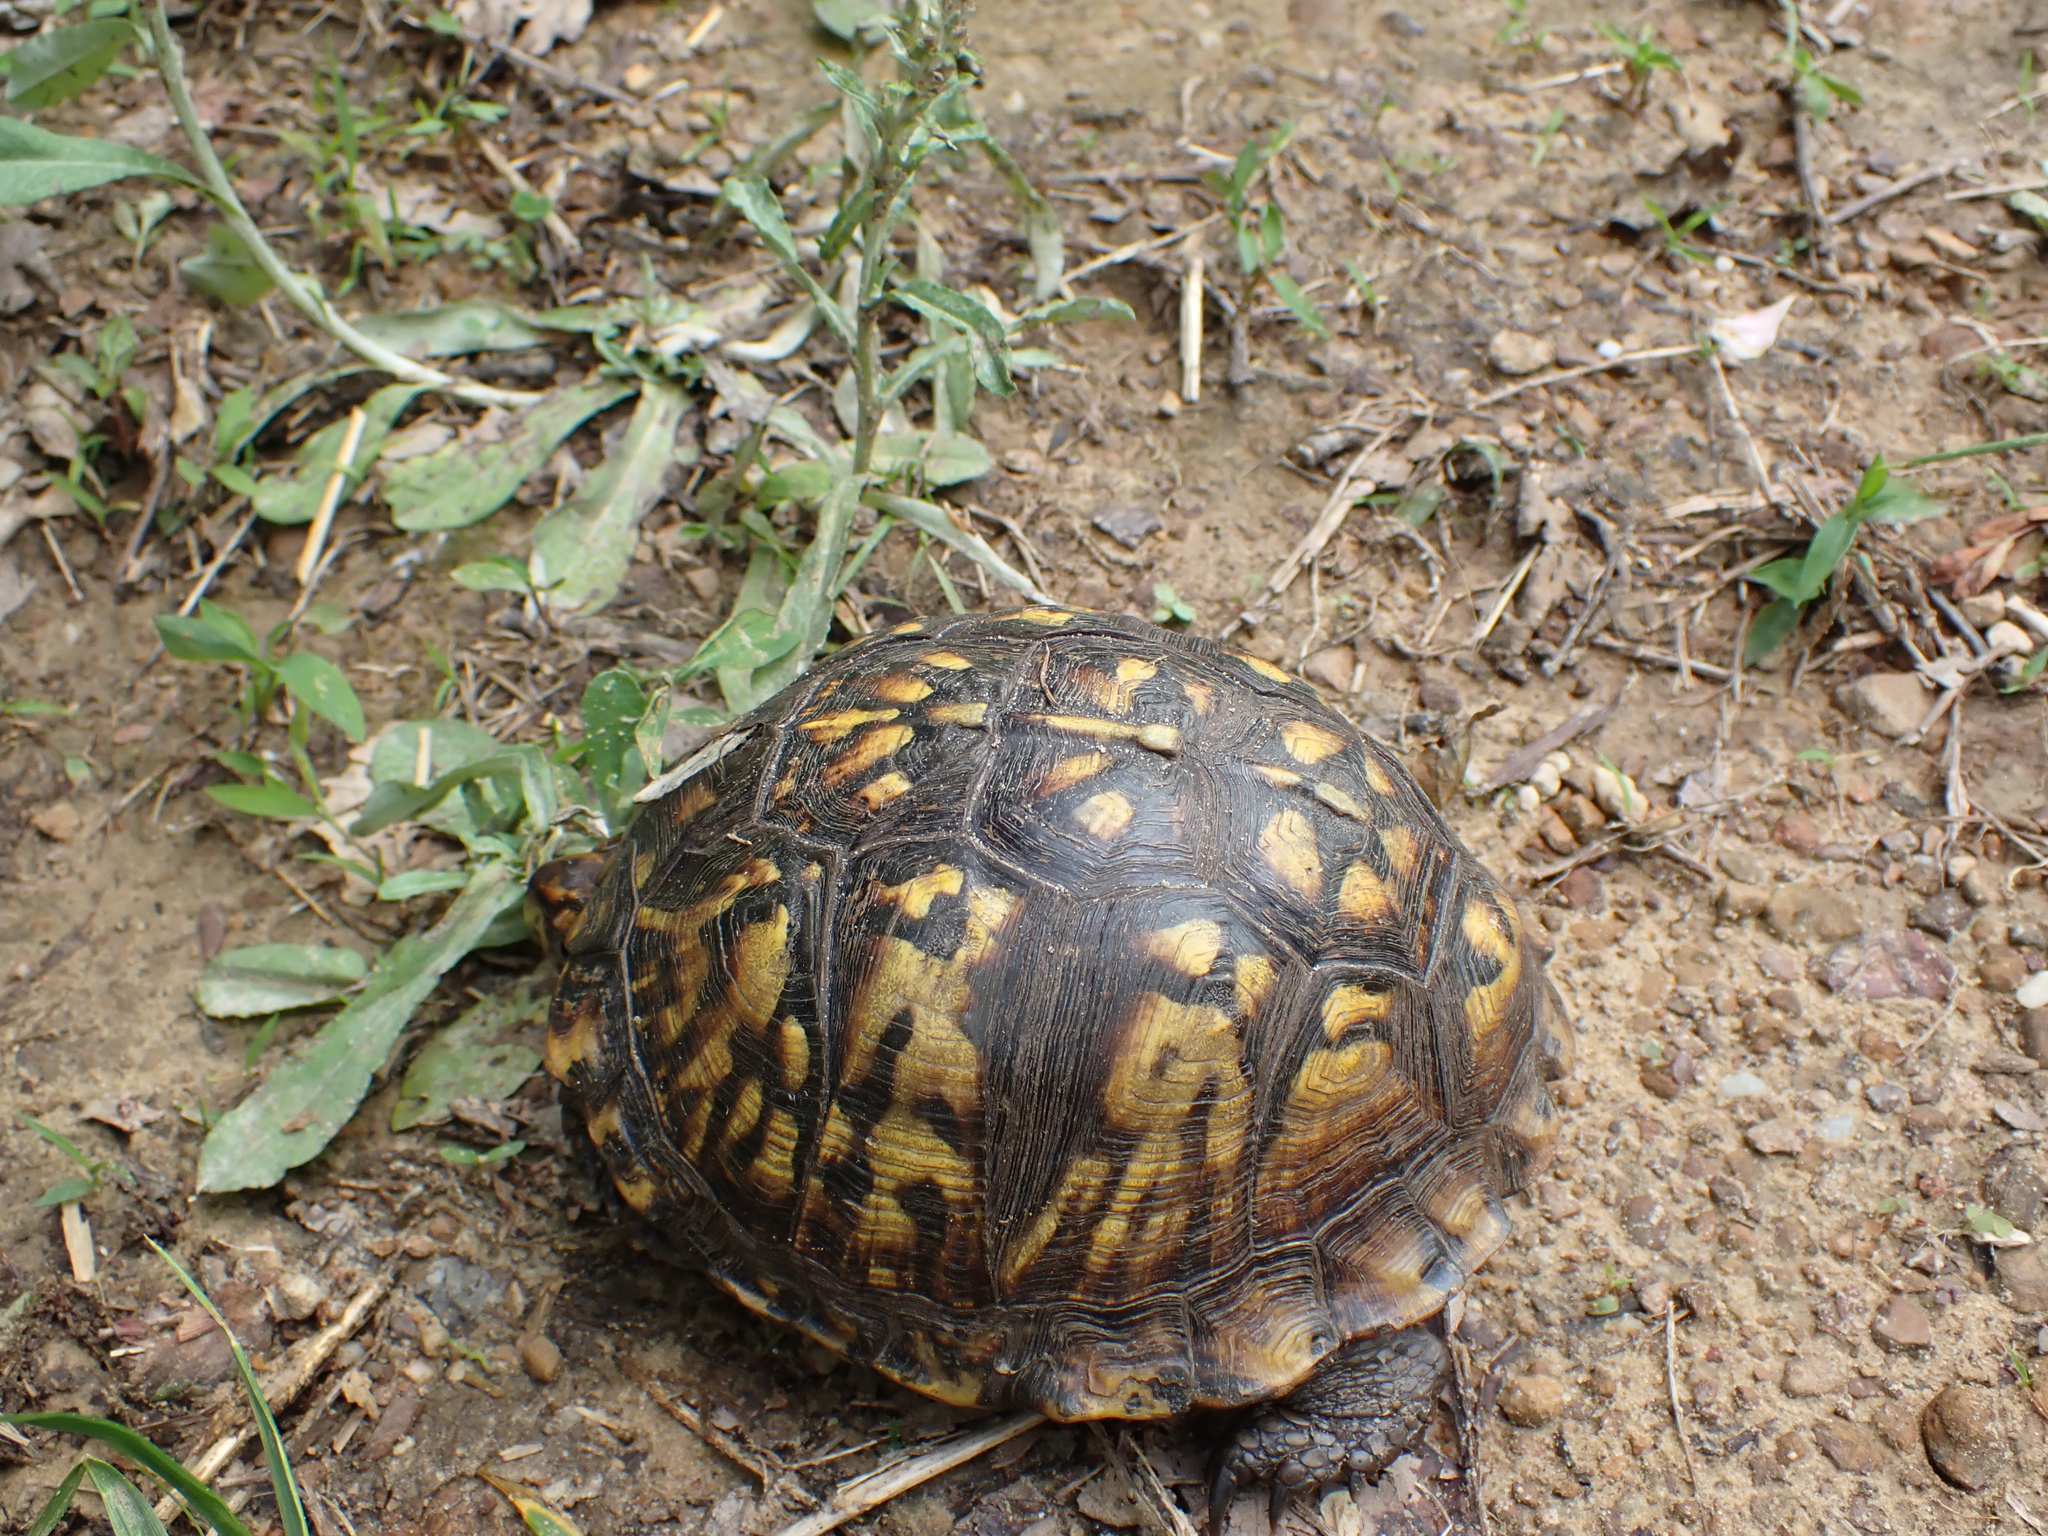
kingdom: Animalia
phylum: Chordata
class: Testudines
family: Emydidae
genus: Terrapene
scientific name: Terrapene carolina
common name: Common box turtle
